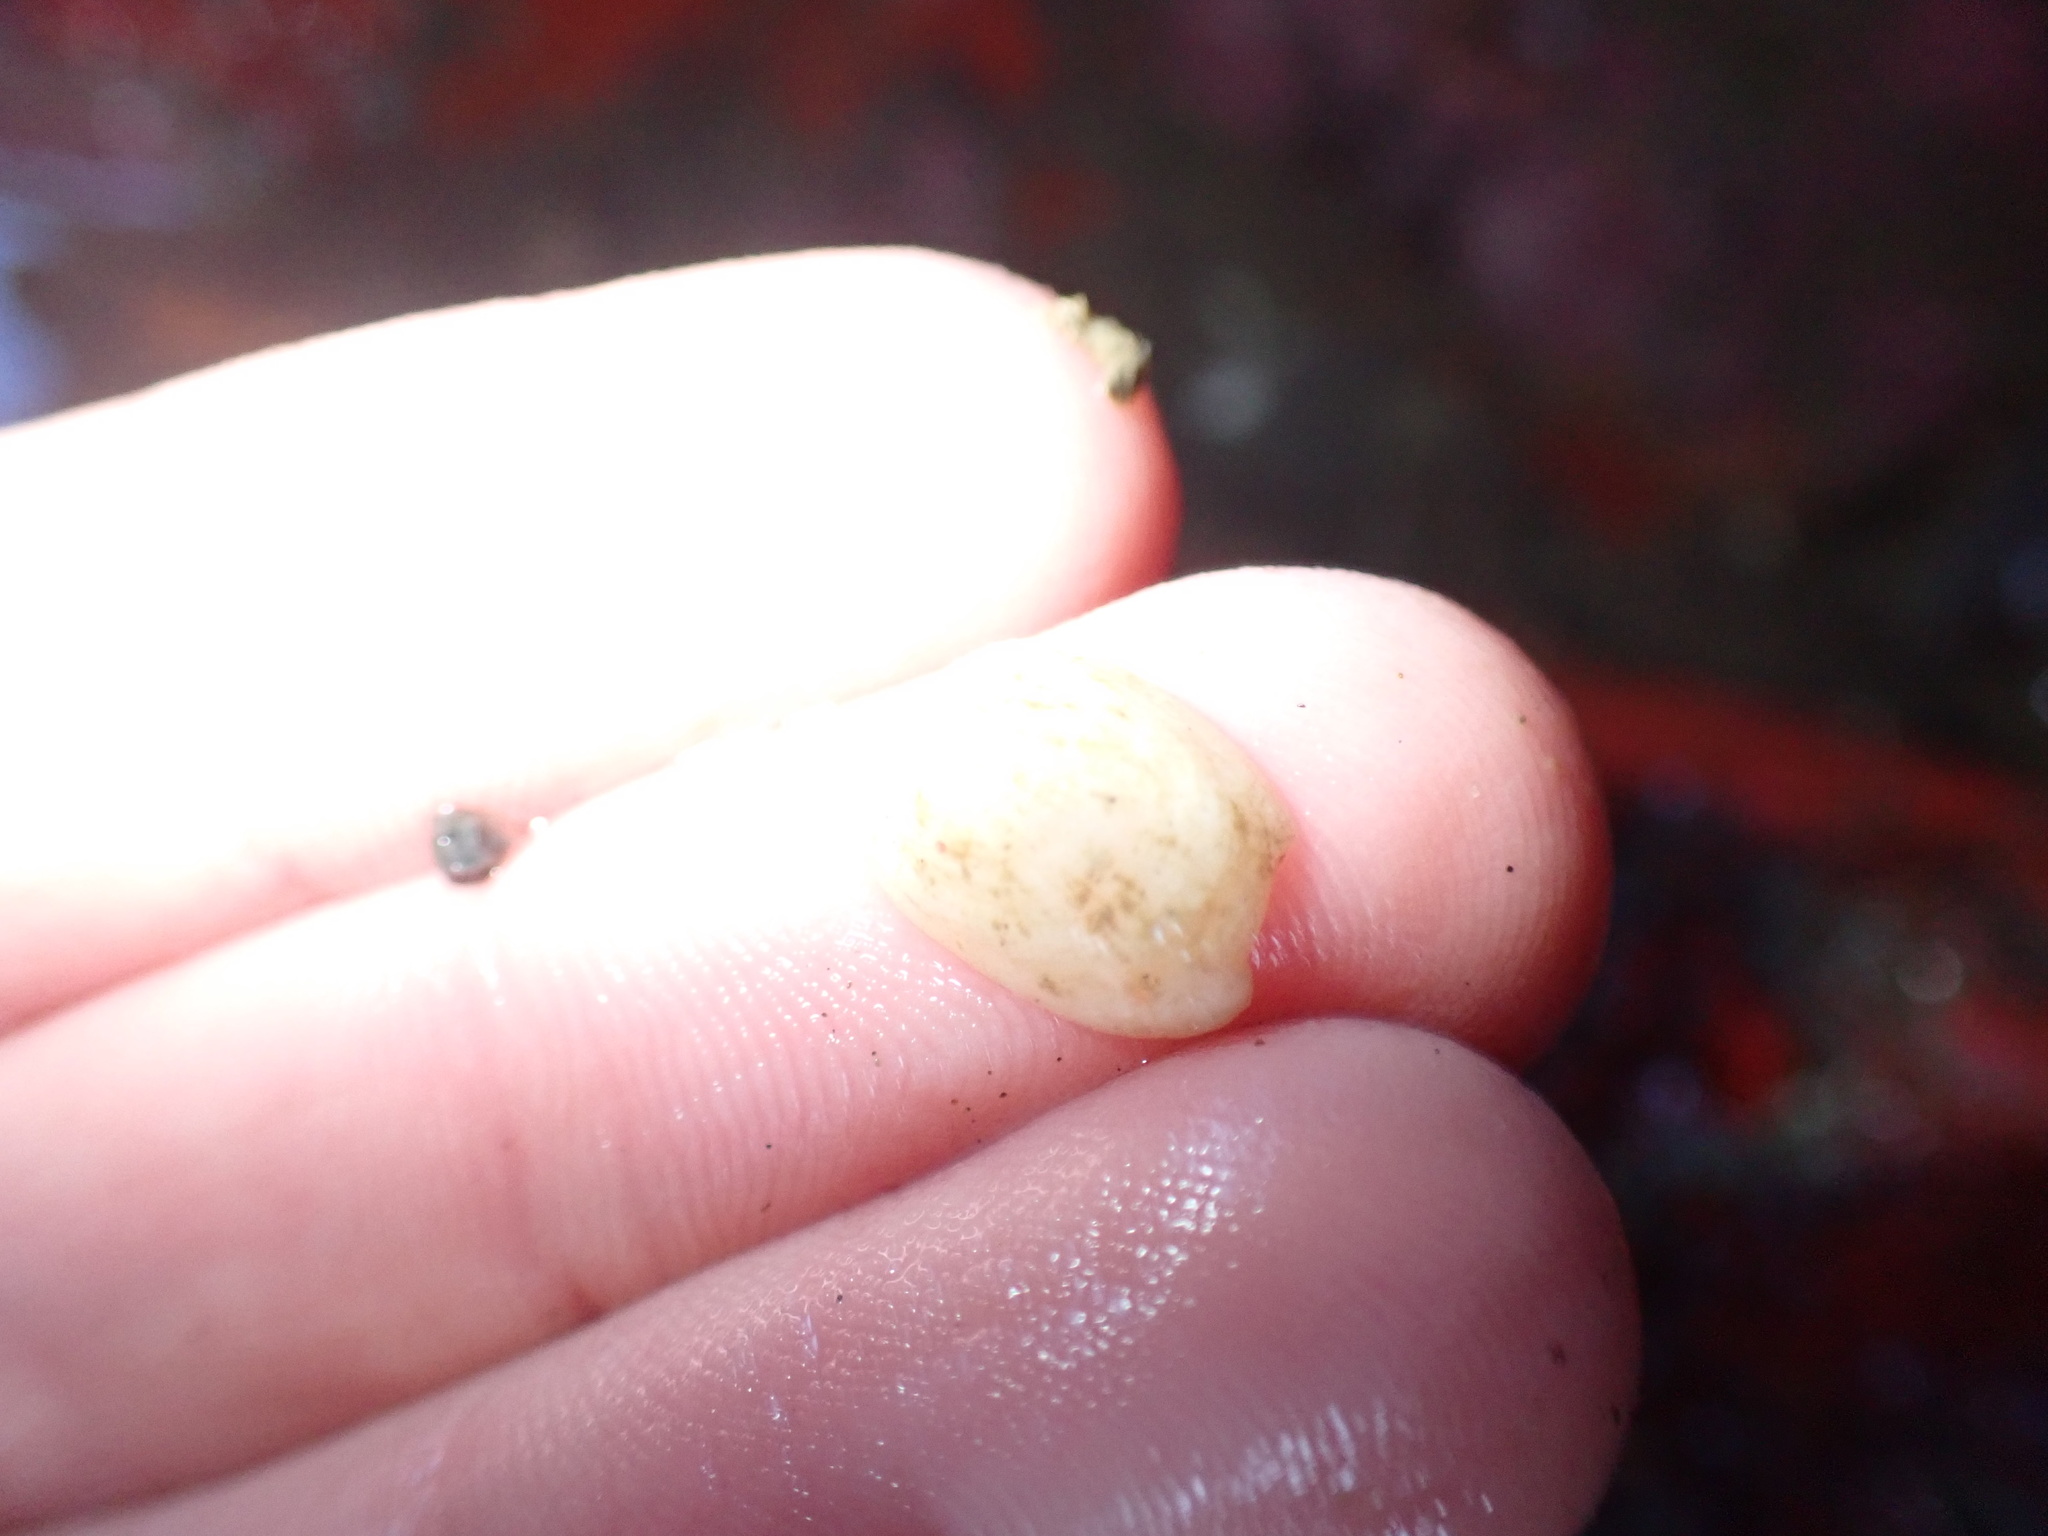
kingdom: Animalia
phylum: Mollusca
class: Gastropoda
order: Lepetellida
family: Fissurellidae
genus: Tugali
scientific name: Tugali suteri
